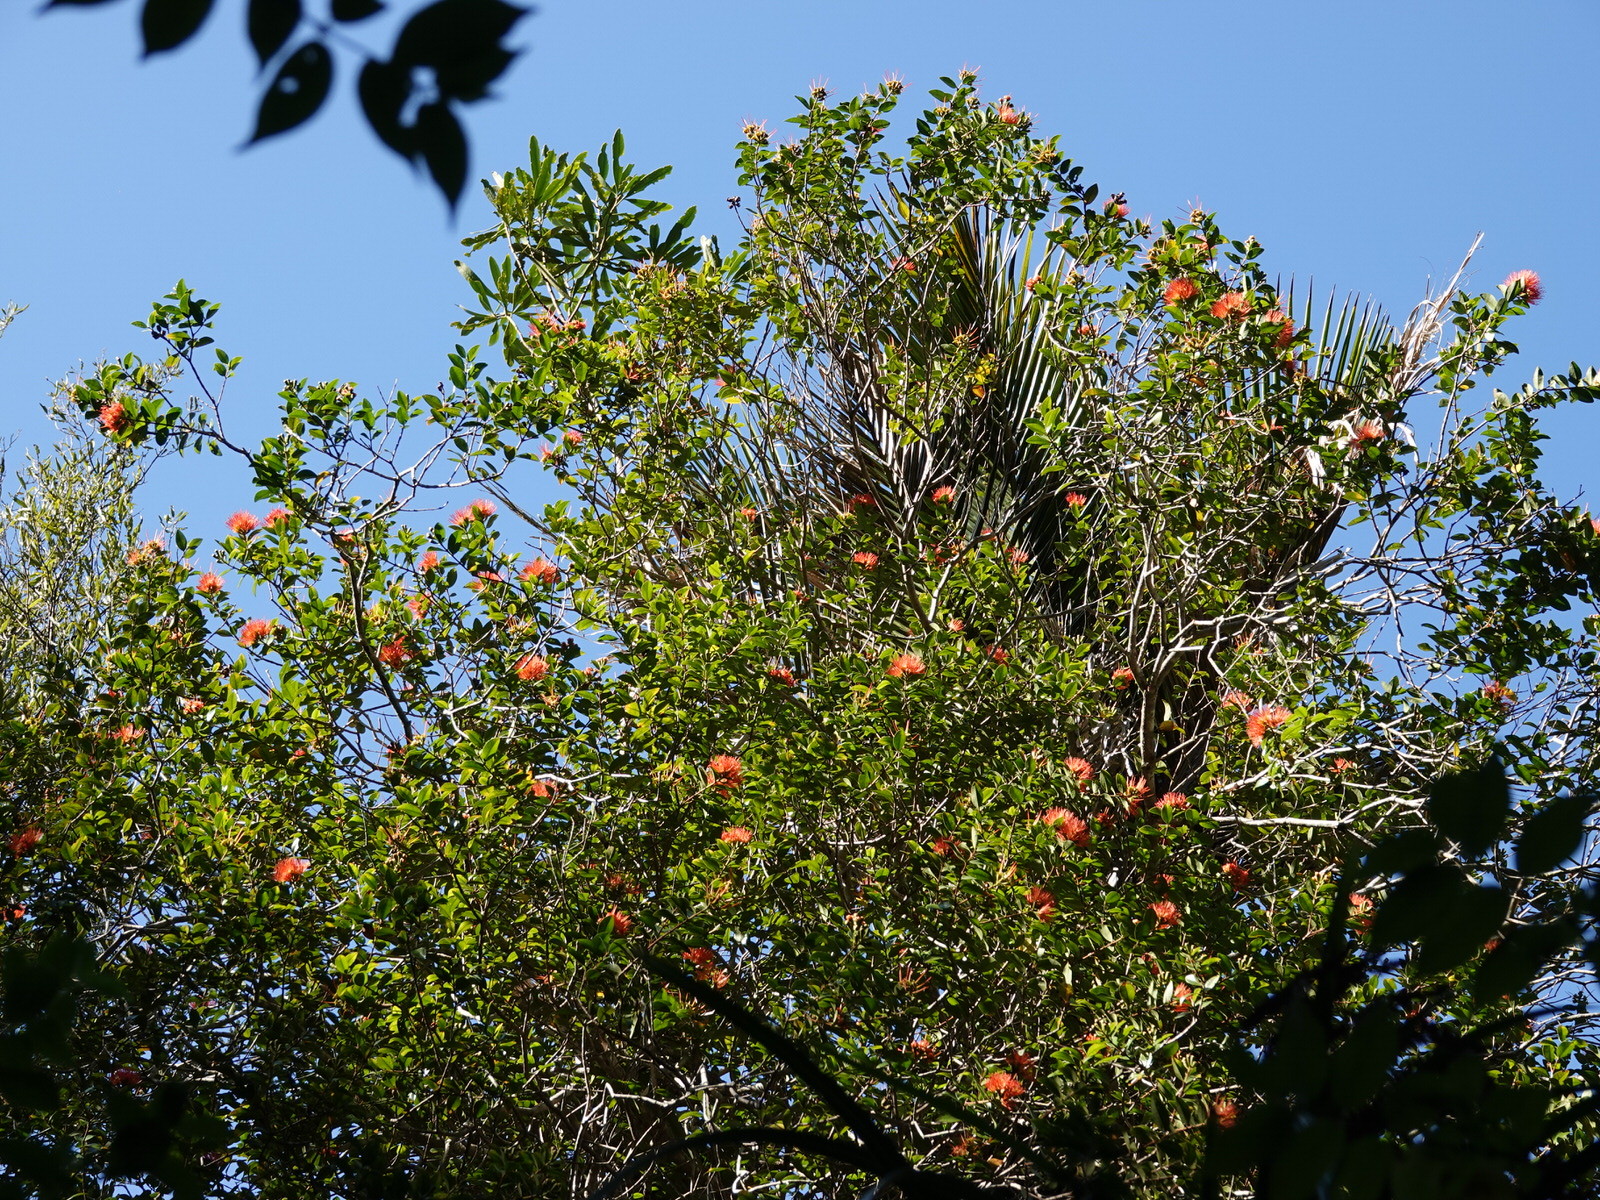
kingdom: Plantae
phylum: Tracheophyta
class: Magnoliopsida
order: Myrtales
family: Myrtaceae
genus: Metrosideros
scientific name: Metrosideros fulgens
